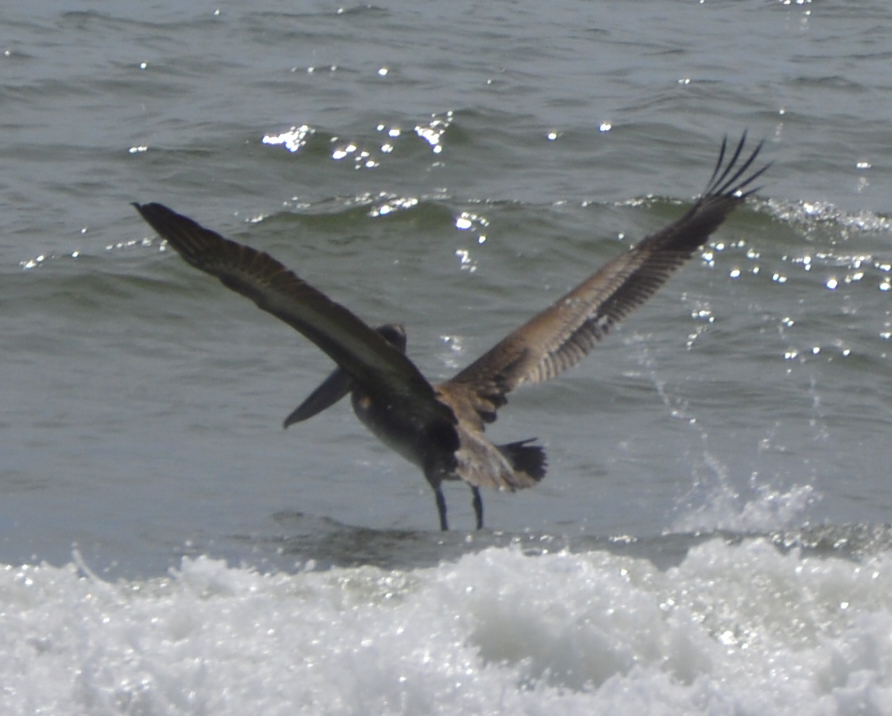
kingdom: Animalia
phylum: Chordata
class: Aves
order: Pelecaniformes
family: Pelecanidae
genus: Pelecanus
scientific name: Pelecanus occidentalis
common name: Brown pelican
